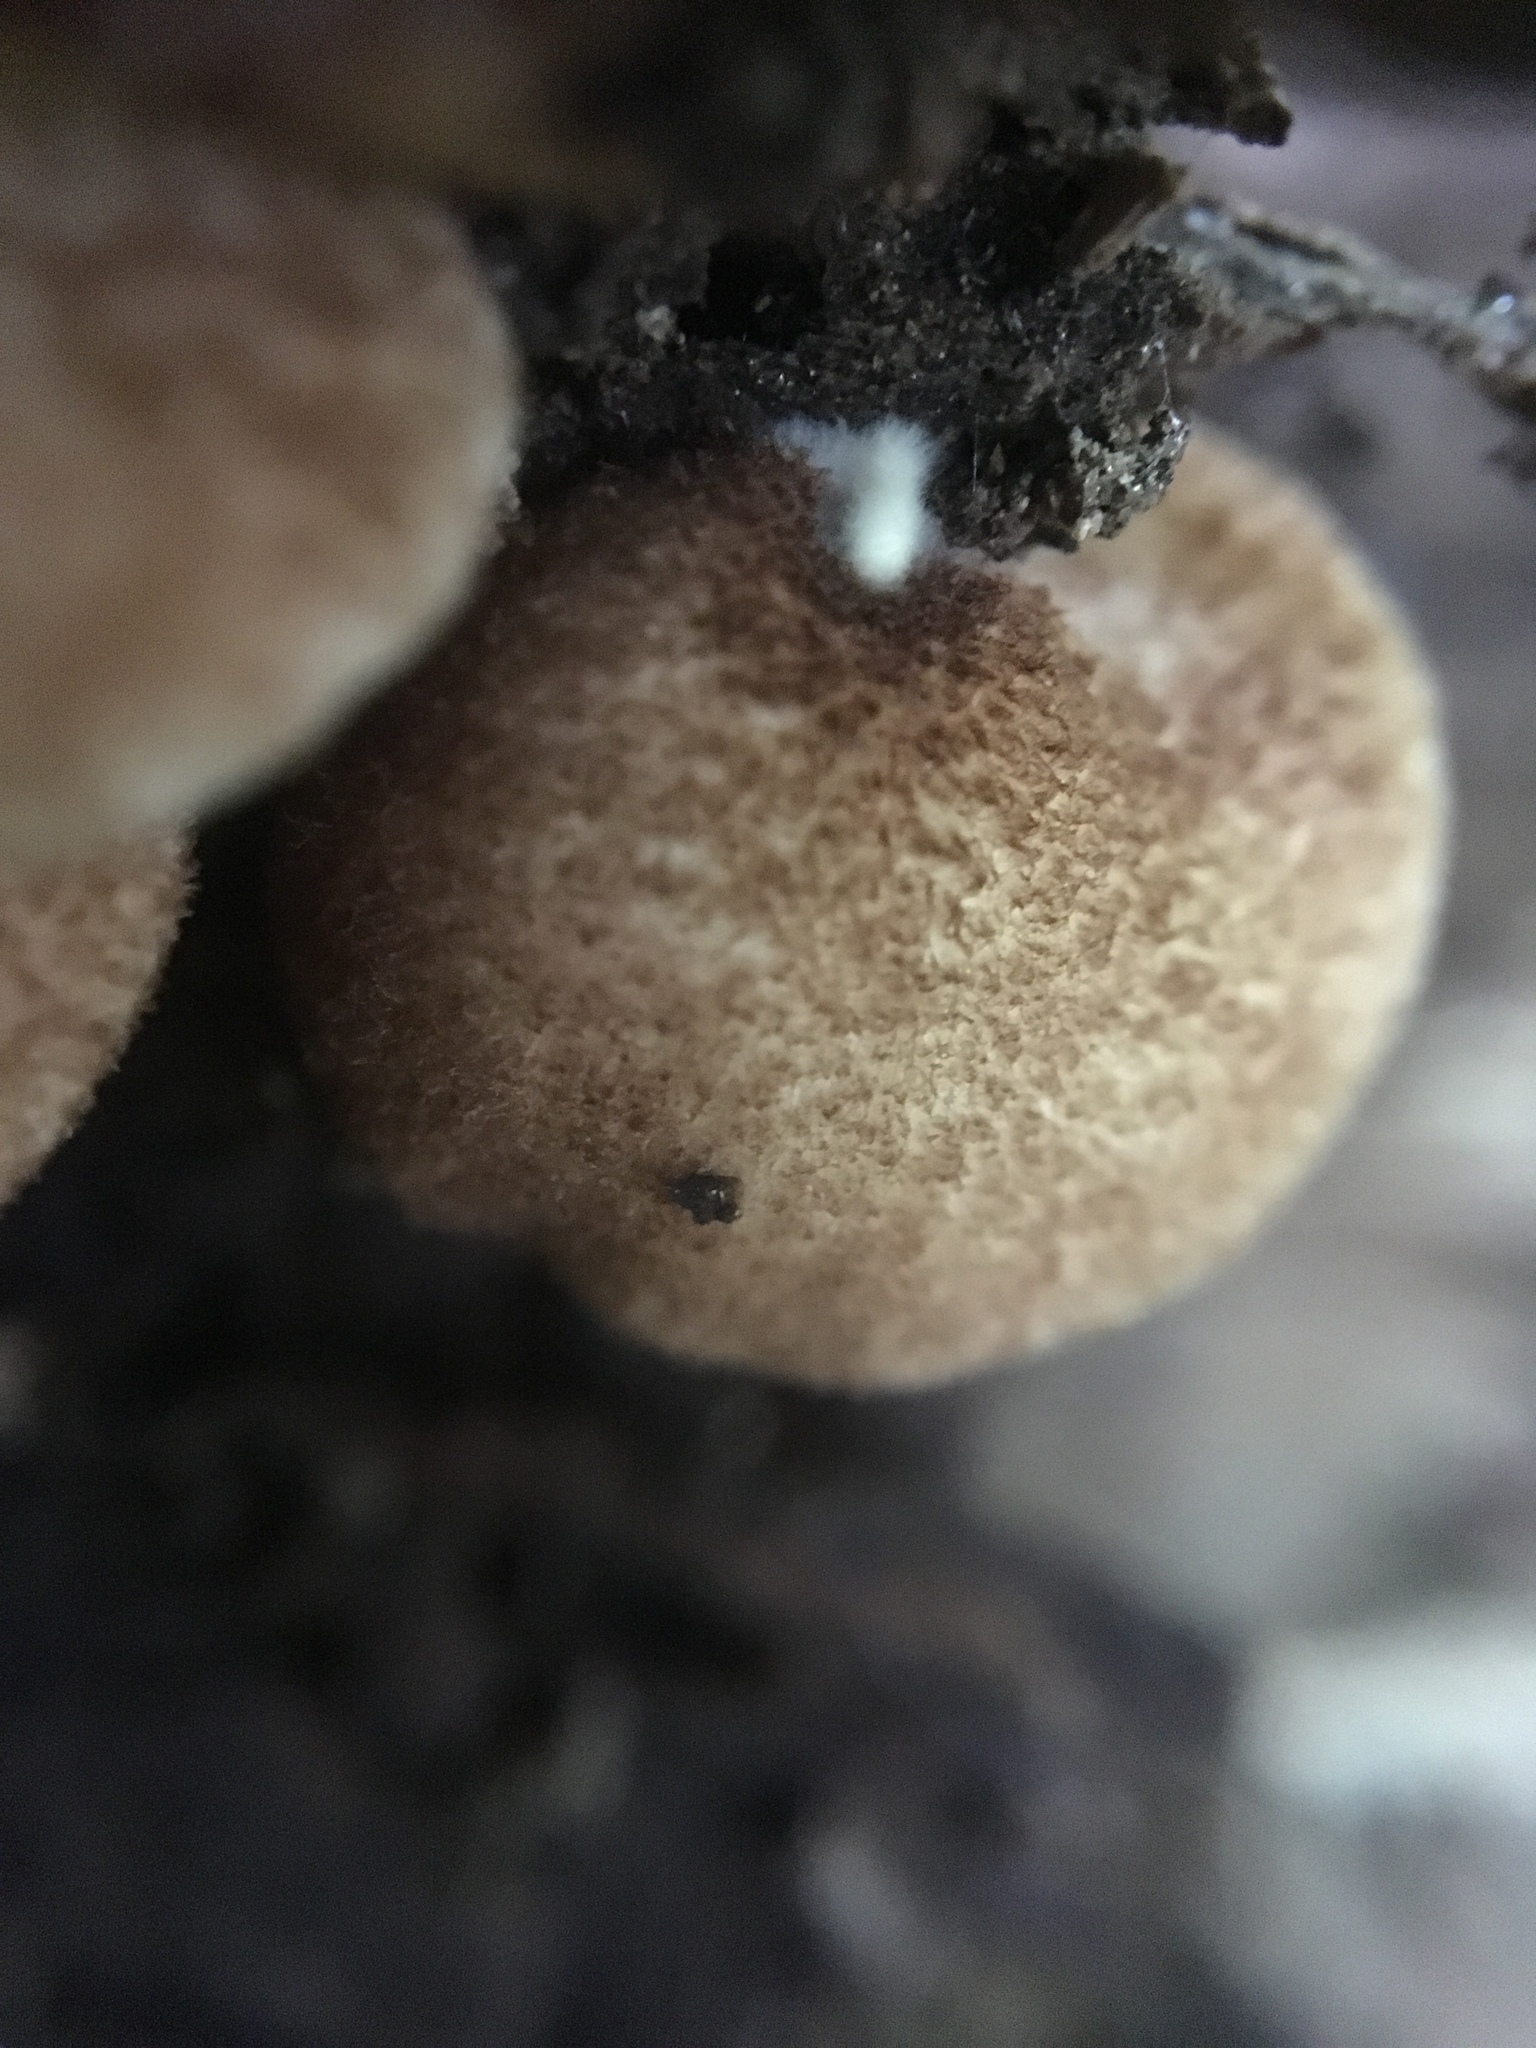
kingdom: Fungi
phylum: Basidiomycota
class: Agaricomycetes
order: Agaricales
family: Crepidotaceae
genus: Crepidotus
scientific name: Crepidotus crocophyllus
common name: Saffron oysterling
